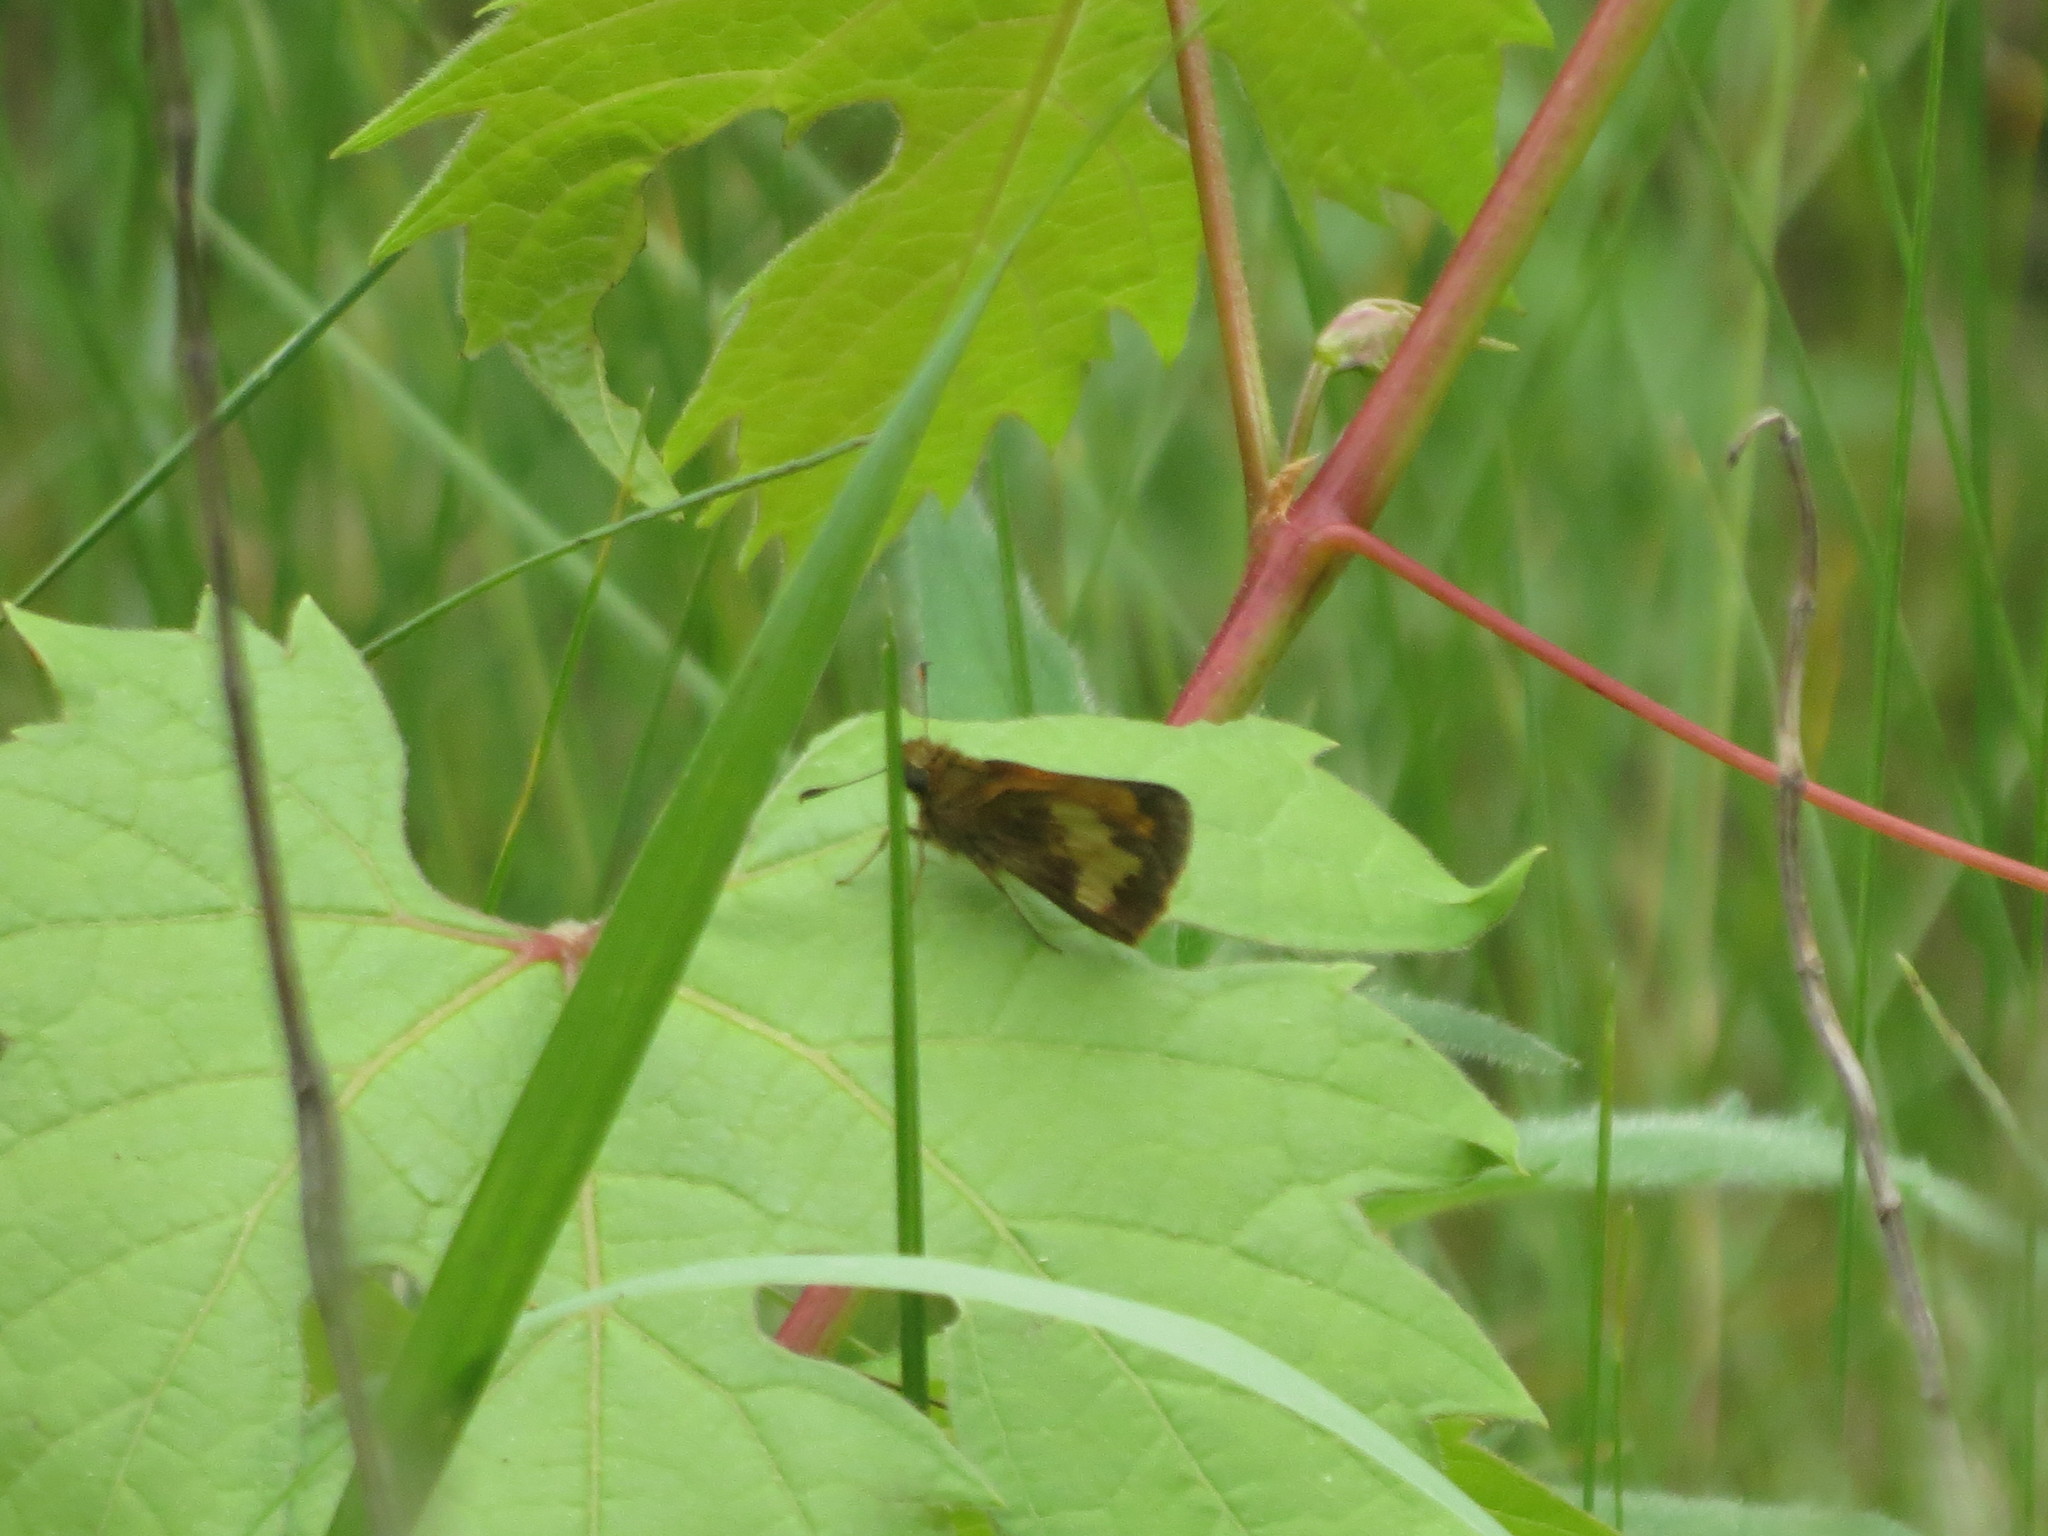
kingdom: Animalia
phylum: Arthropoda
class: Insecta
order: Lepidoptera
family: Hesperiidae
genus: Lon
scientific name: Lon hobomok
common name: Hobomok skipper
